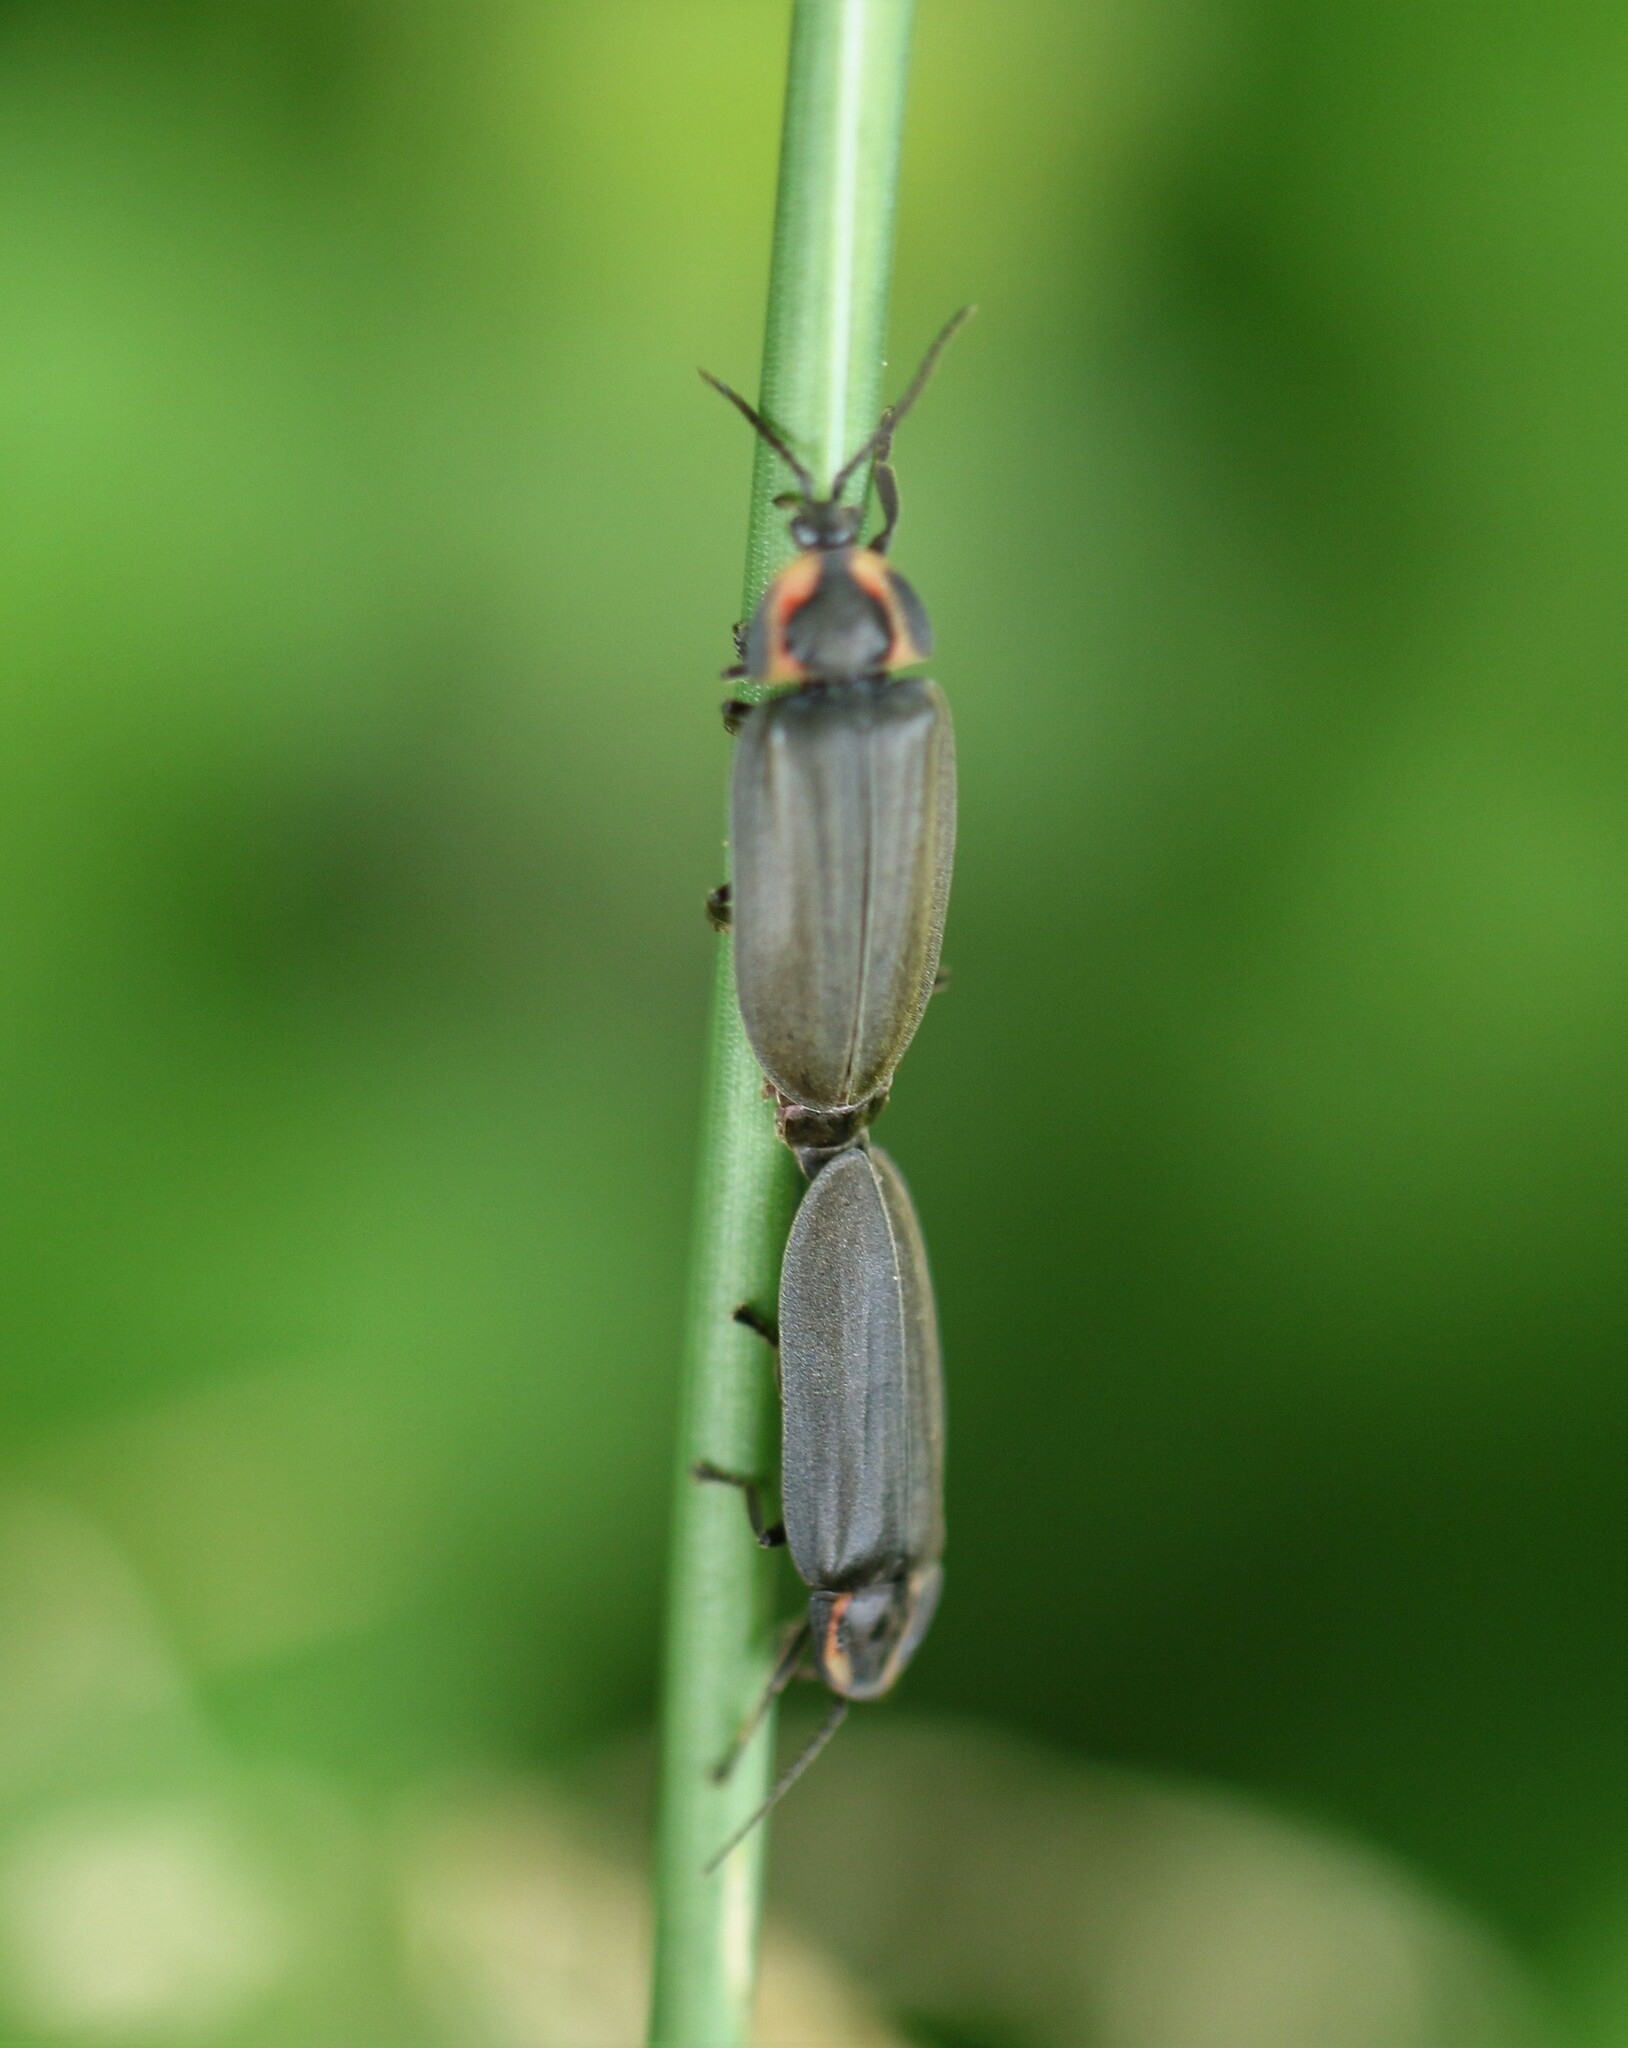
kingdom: Animalia
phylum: Arthropoda
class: Insecta
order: Coleoptera
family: Lampyridae
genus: Photinus
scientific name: Photinus corrusca
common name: Winter firefly
